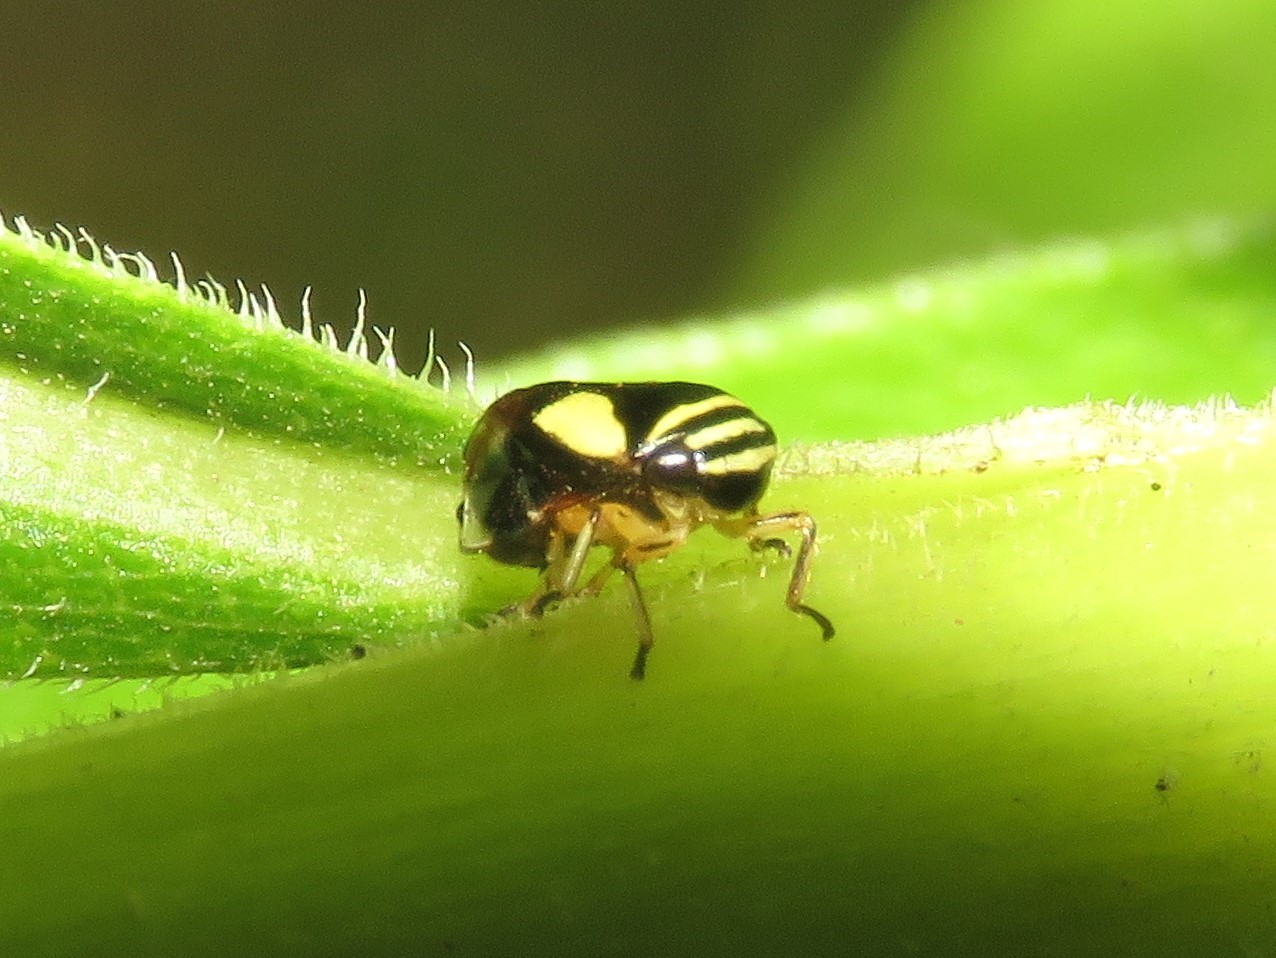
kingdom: Animalia
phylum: Arthropoda
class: Insecta
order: Hemiptera
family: Clastopteridae
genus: Clastoptera
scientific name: Clastoptera proteus
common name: Dogwood spittlebug
